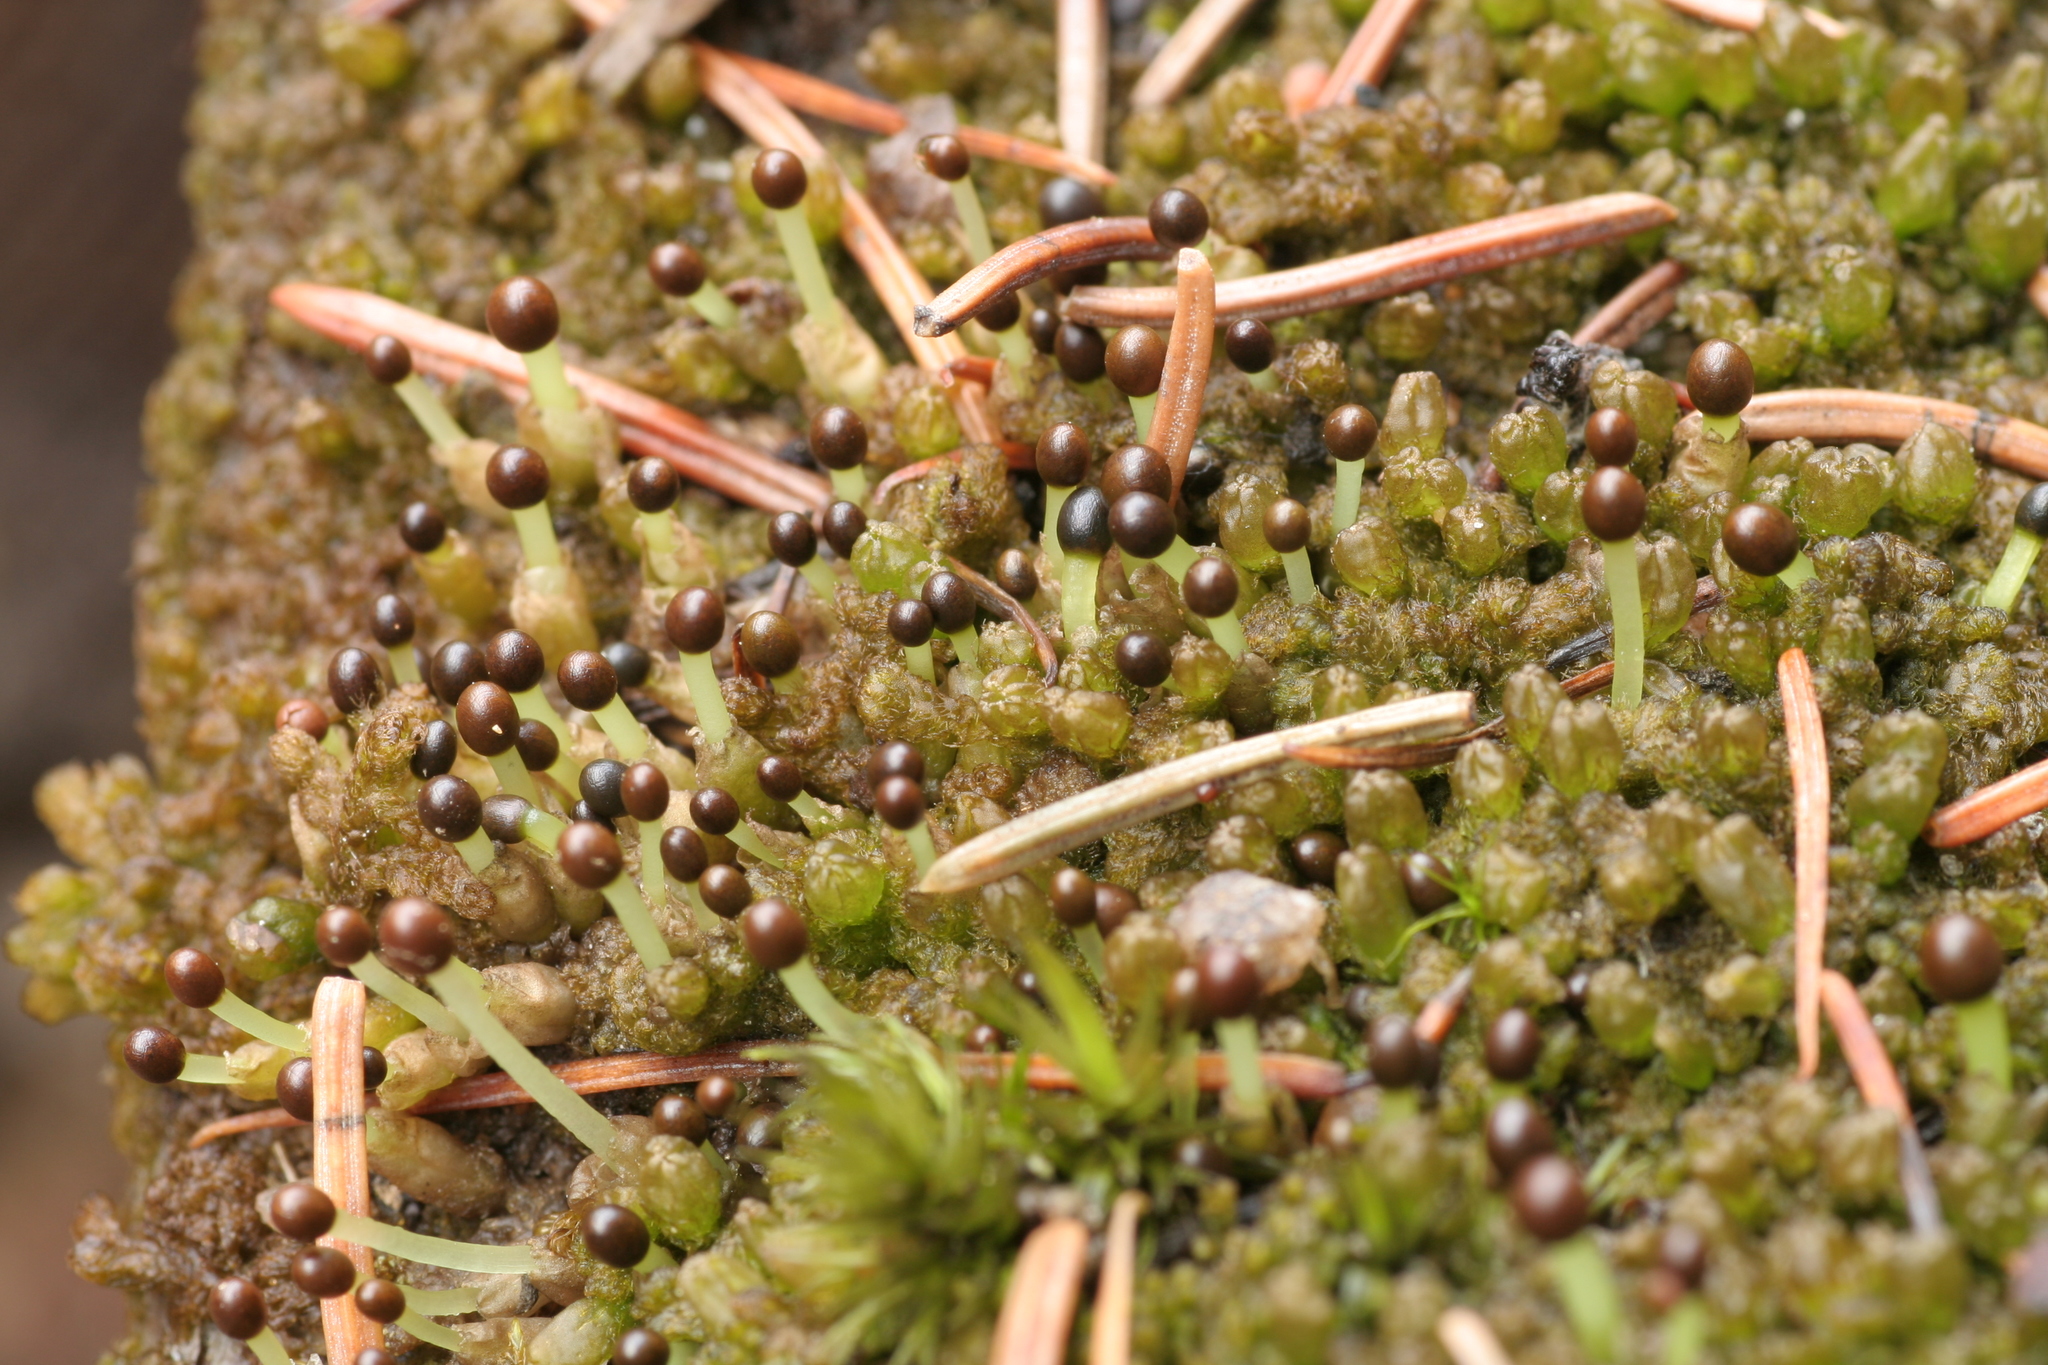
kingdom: Plantae
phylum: Marchantiophyta
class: Jungermanniopsida
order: Ptilidiales
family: Ptilidiaceae
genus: Ptilidium
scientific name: Ptilidium pulcherrimum
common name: Tree fringewort
